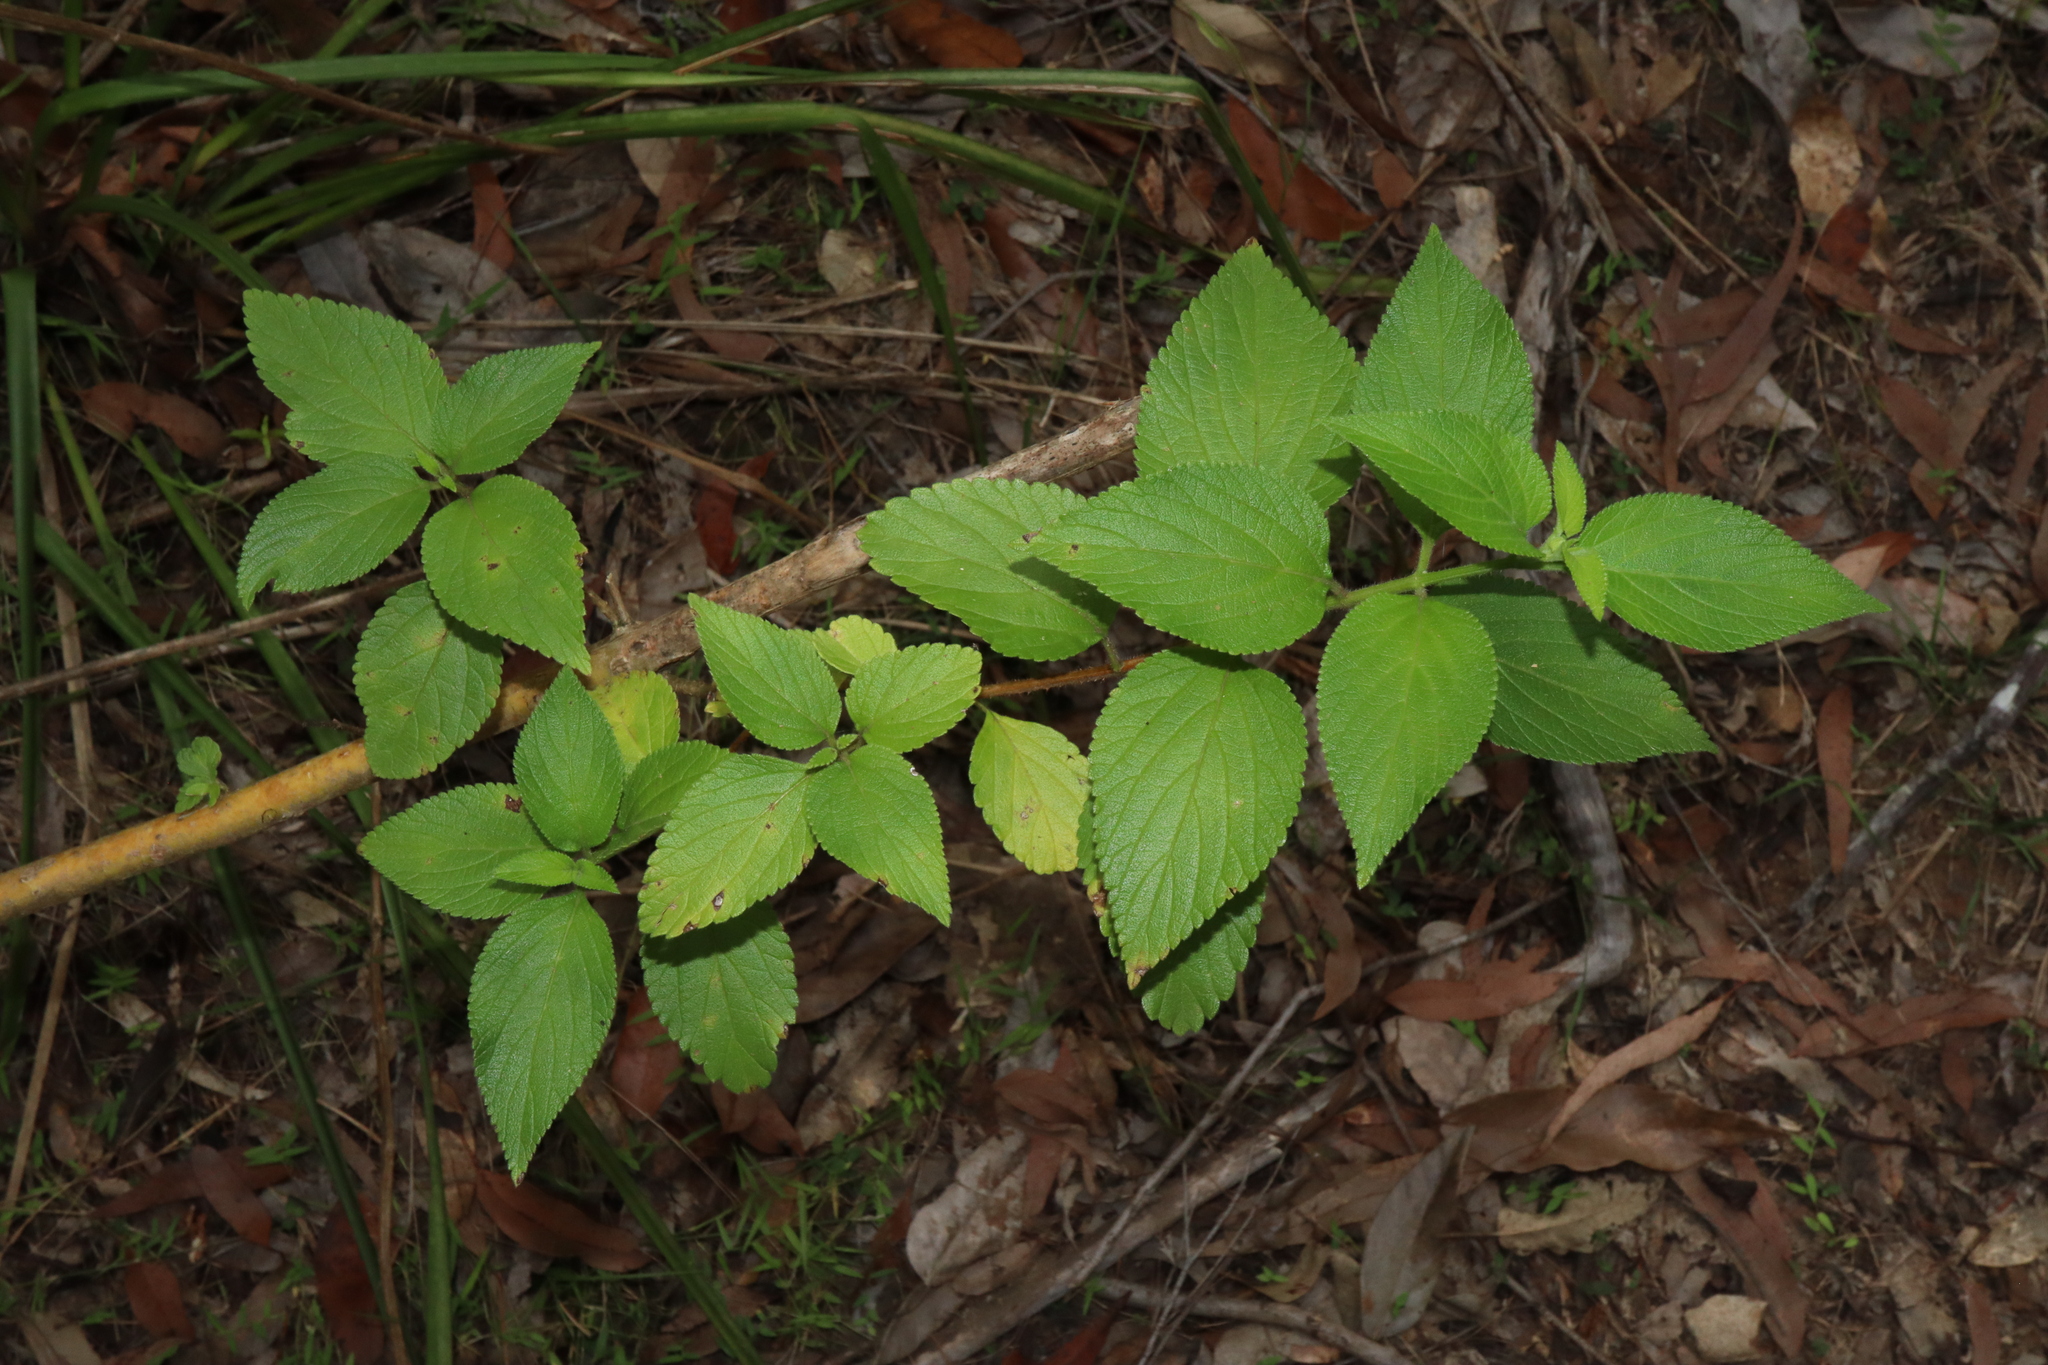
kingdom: Plantae
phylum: Tracheophyta
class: Magnoliopsida
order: Lamiales
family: Verbenaceae
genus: Lantana
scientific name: Lantana camara
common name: Lantana
